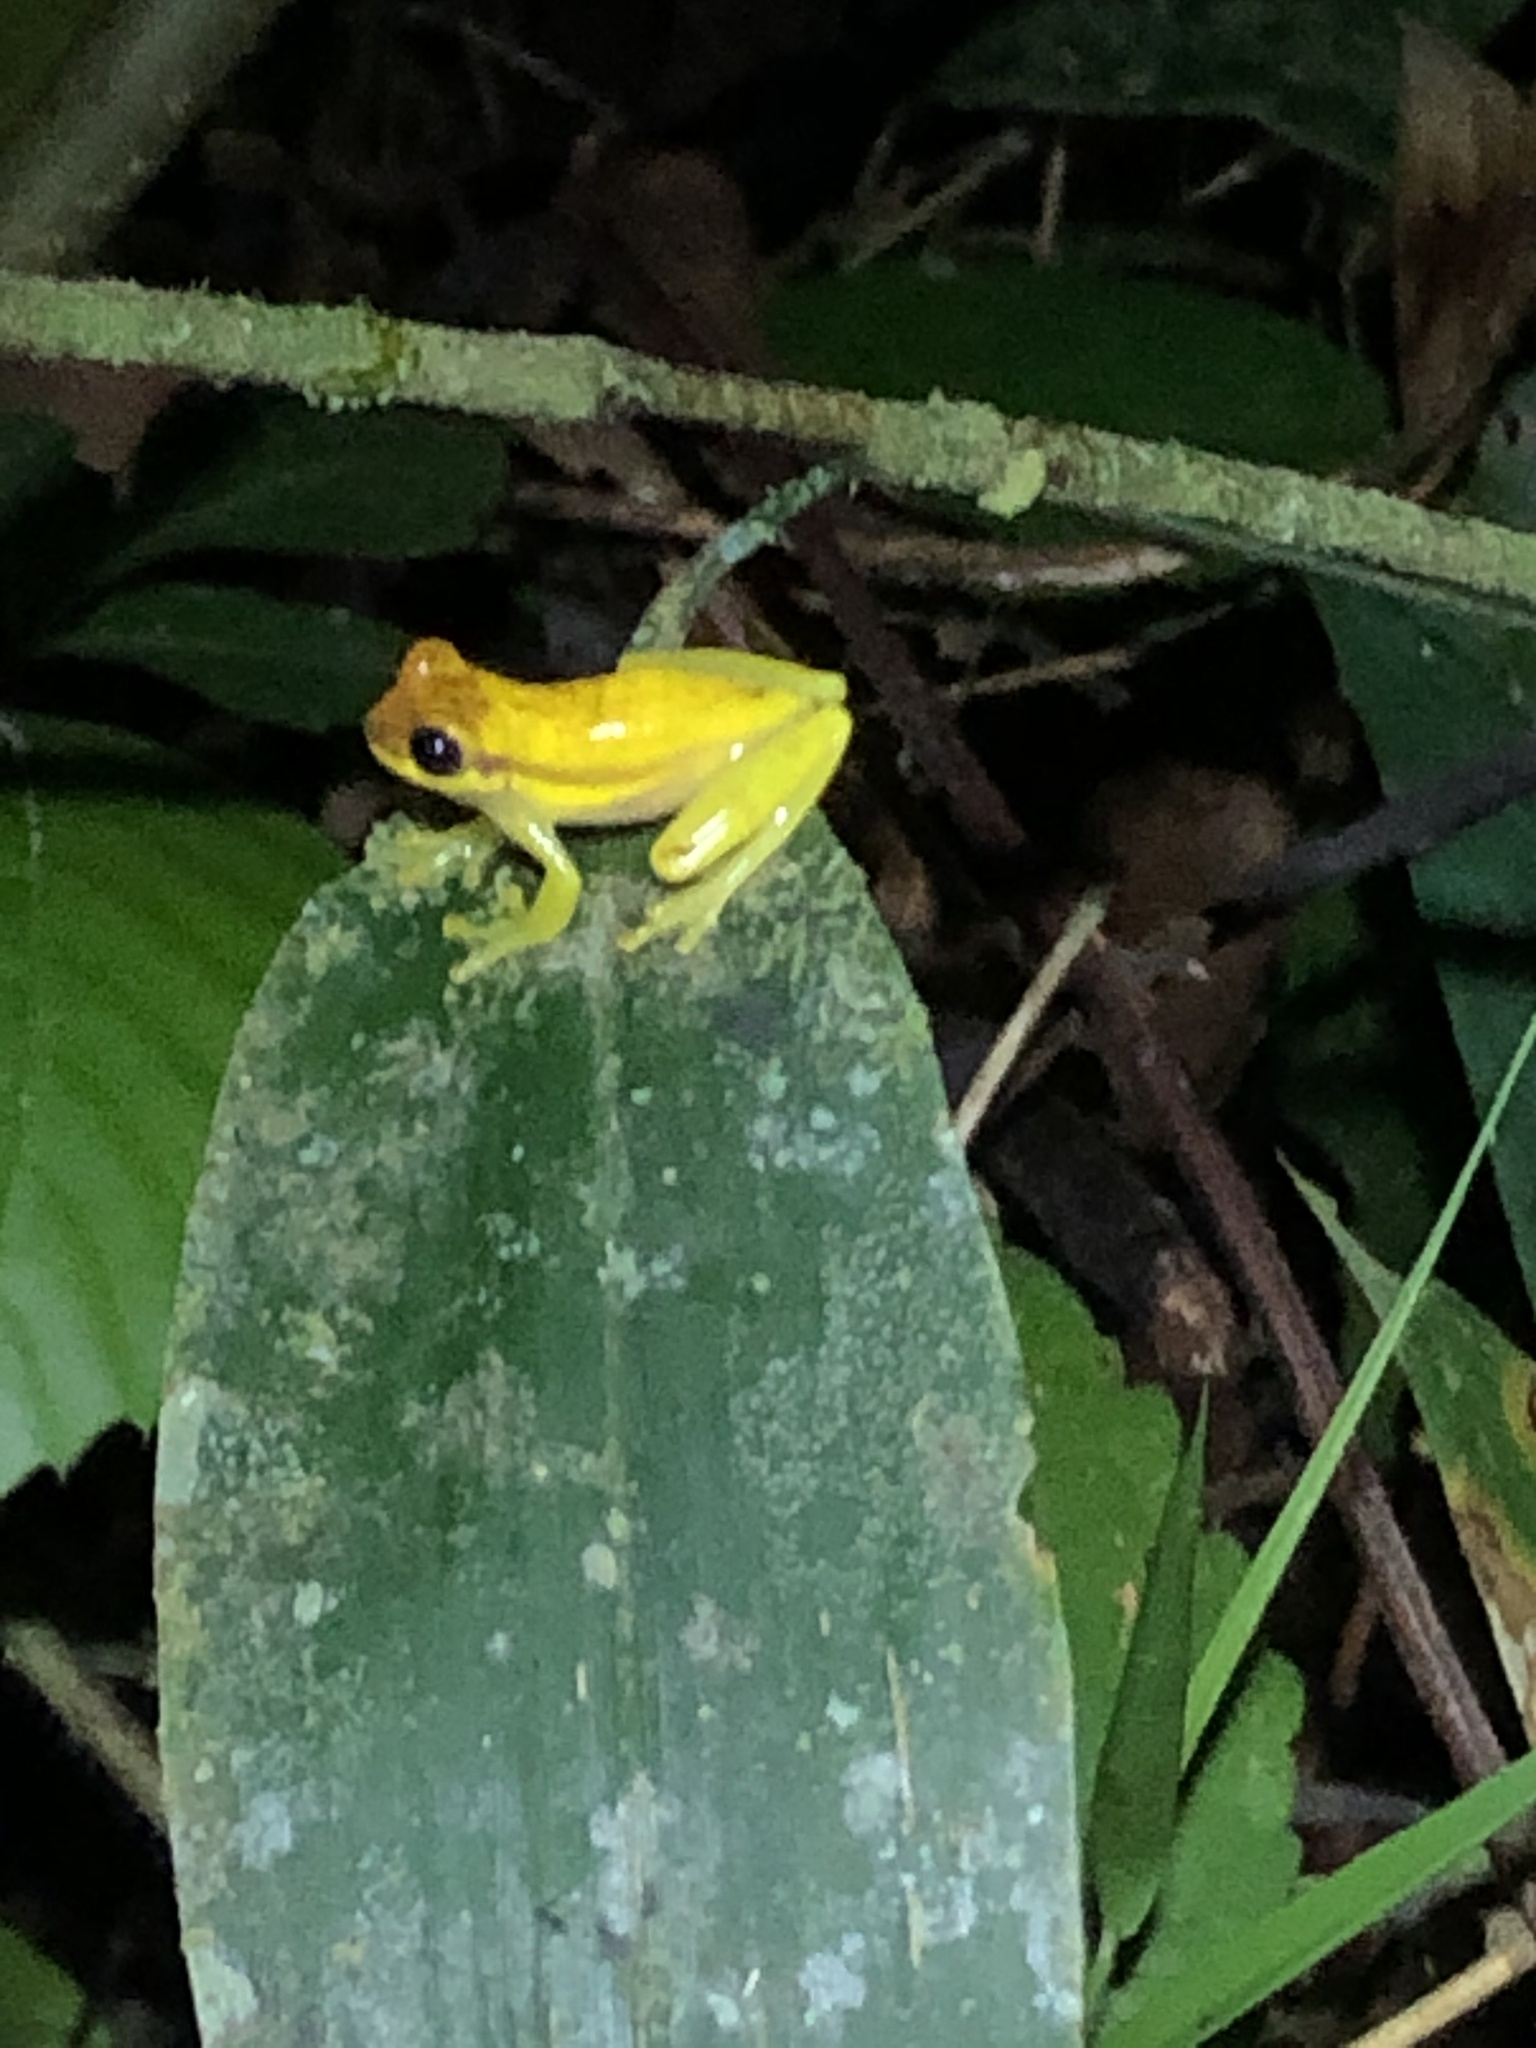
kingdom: Animalia
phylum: Chordata
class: Amphibia
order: Anura
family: Hylidae
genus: Dendropsophus
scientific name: Dendropsophus rhodopeplus
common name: Red-skirted treefrog
